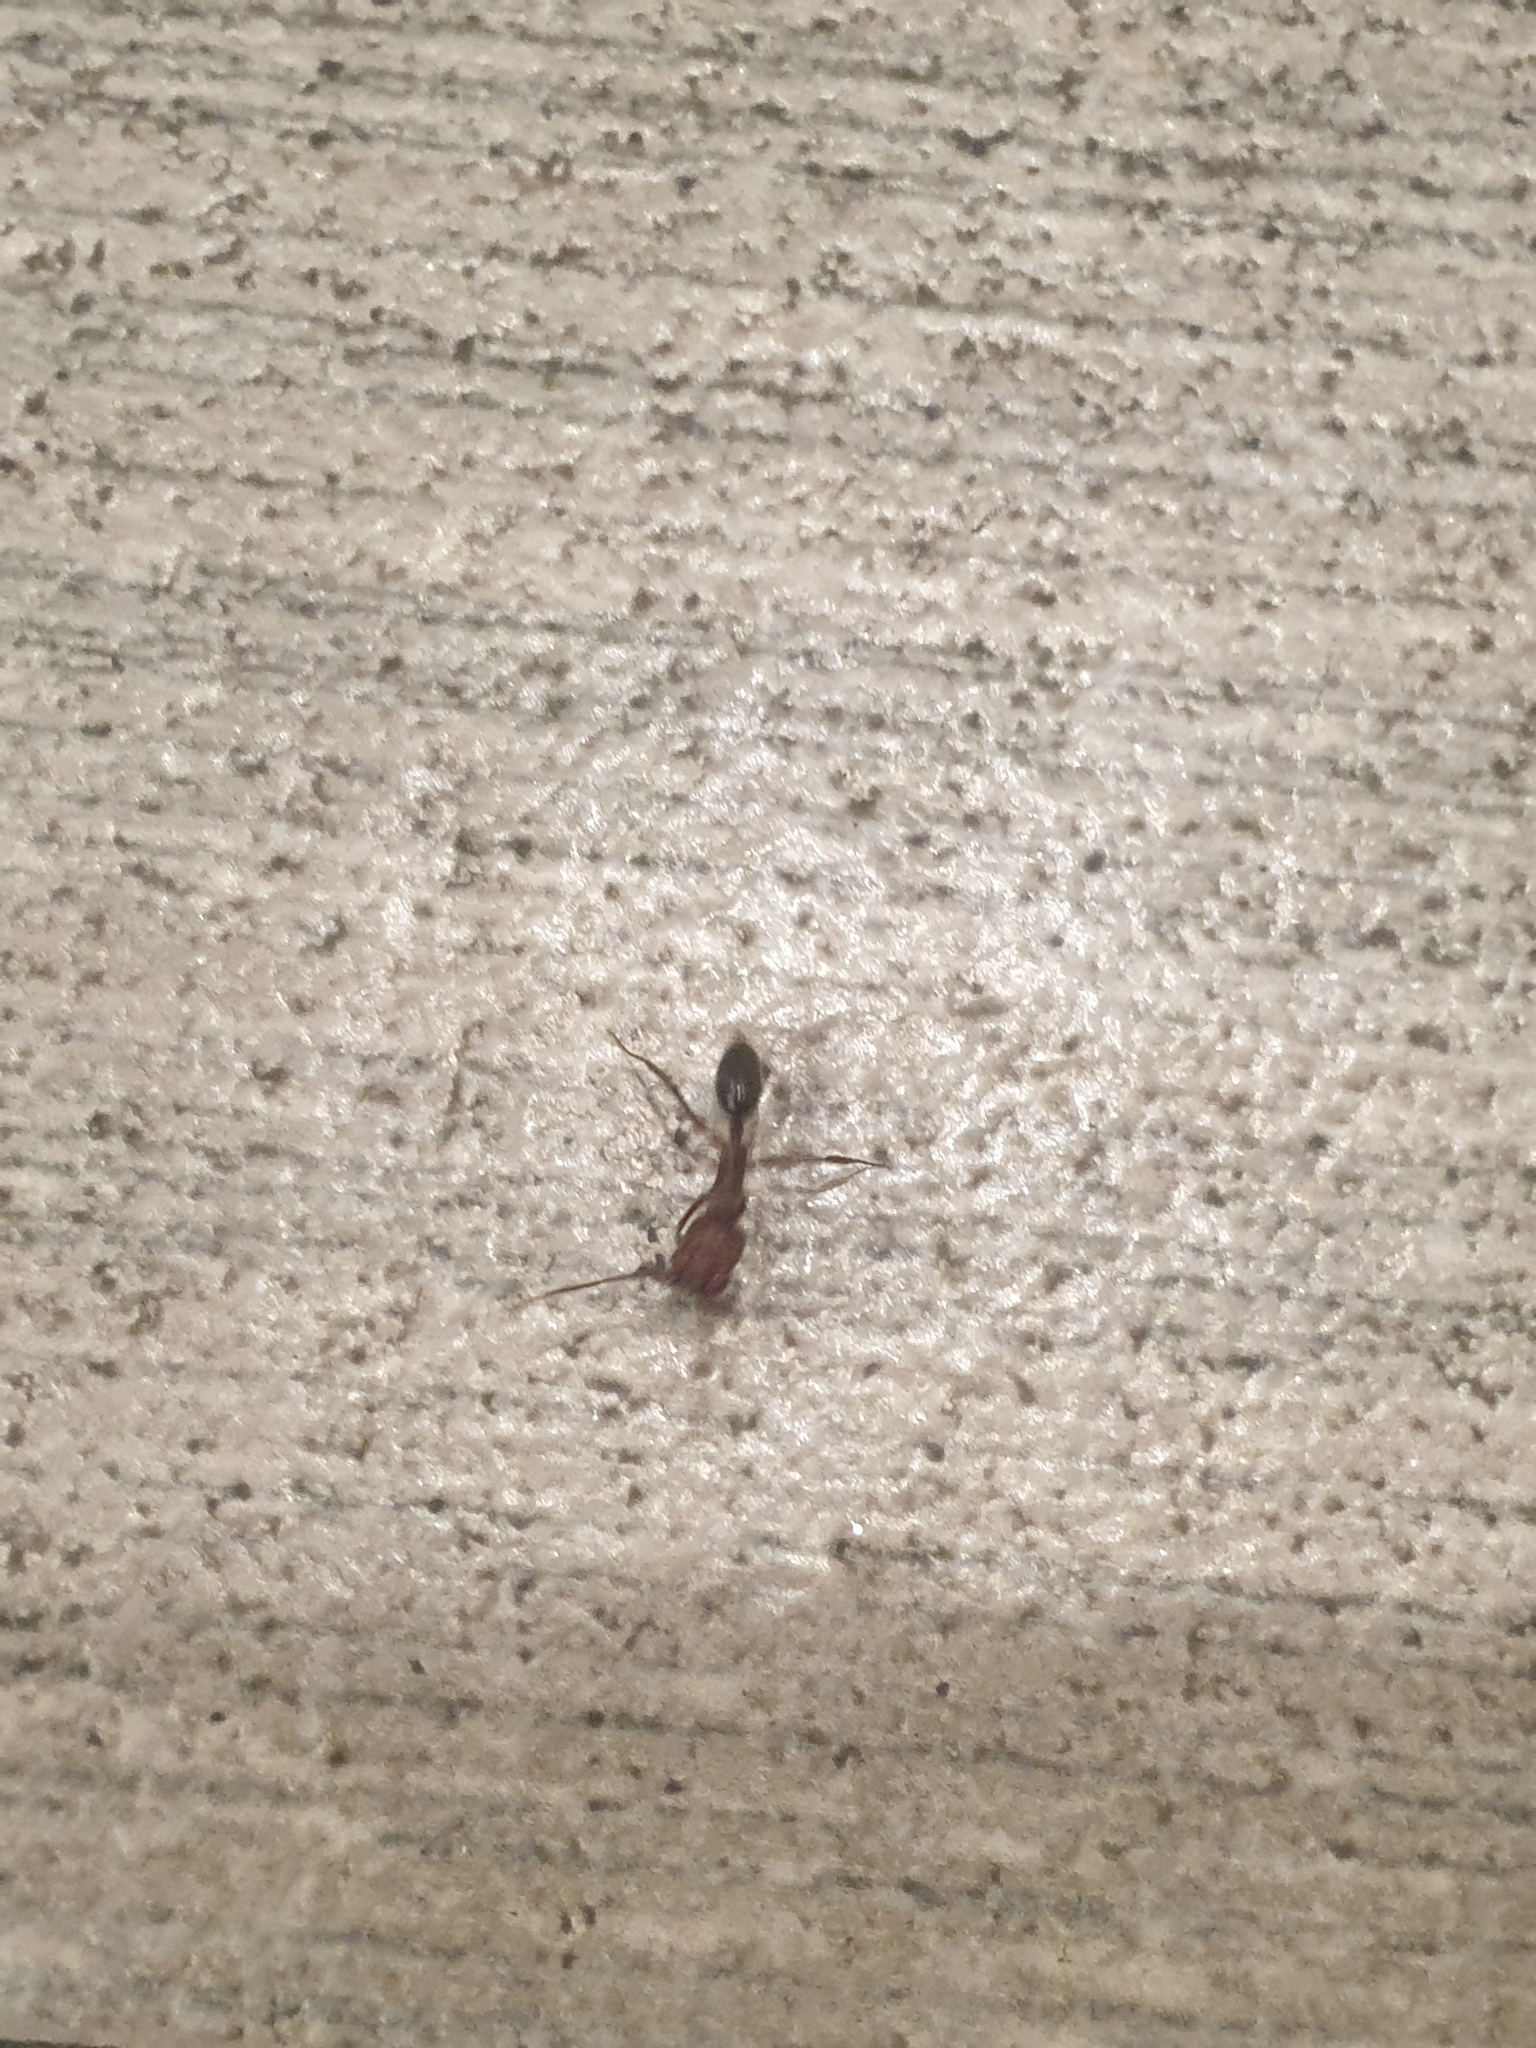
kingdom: Animalia
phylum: Arthropoda
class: Insecta
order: Hymenoptera
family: Formicidae
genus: Odontomachus
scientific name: Odontomachus
